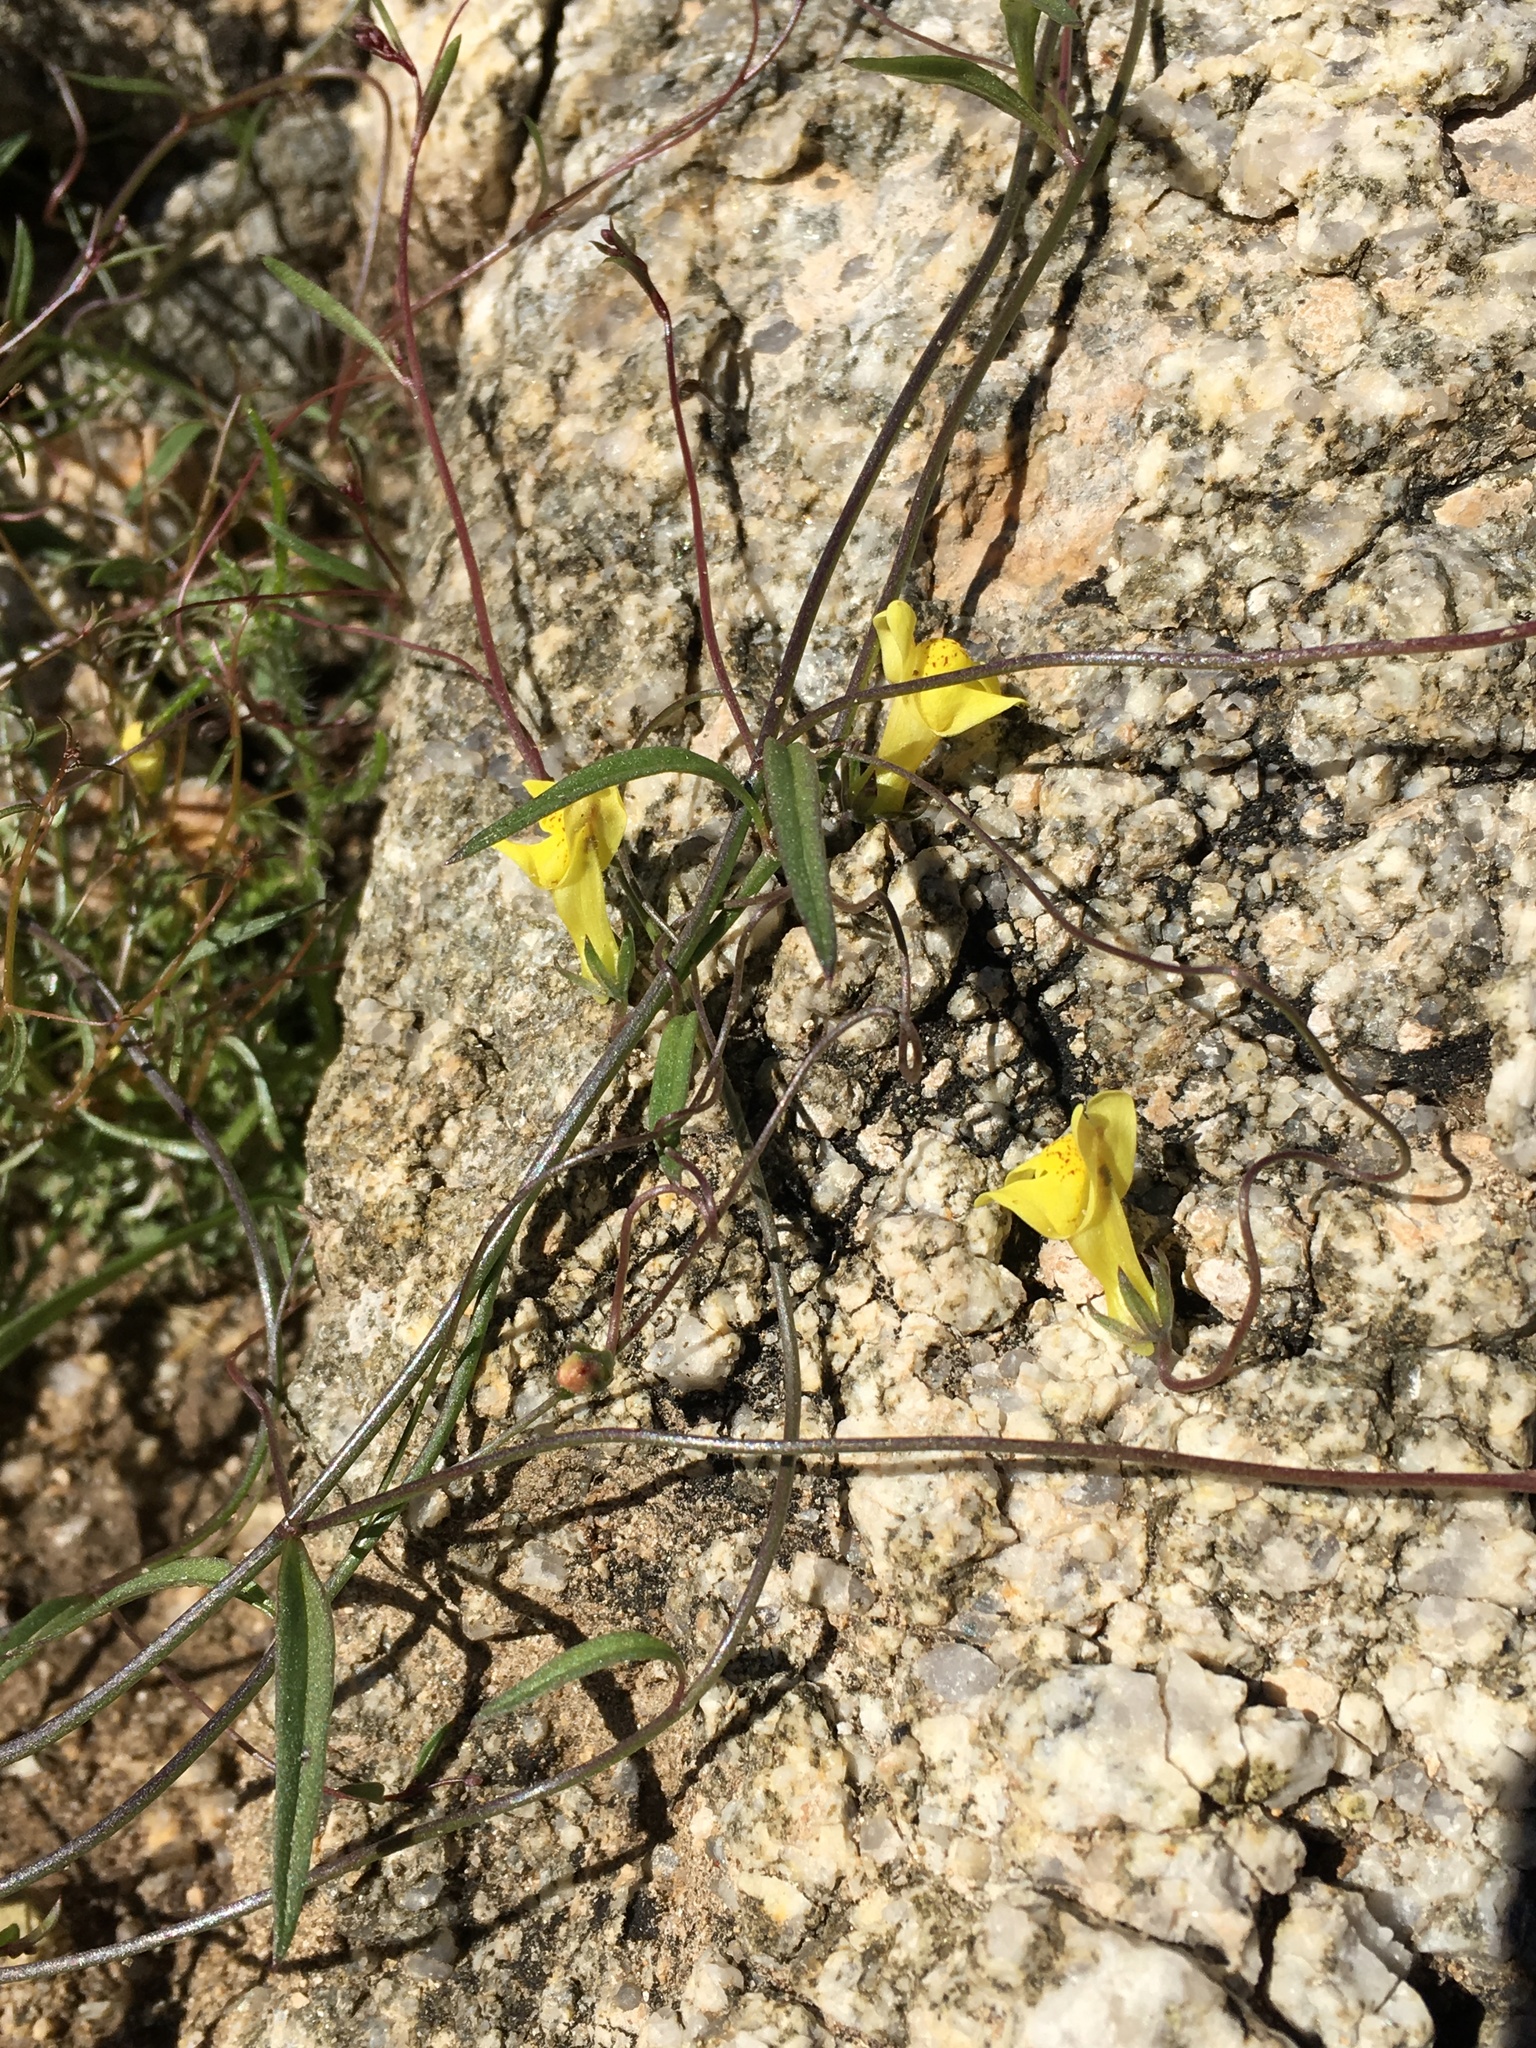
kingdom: Plantae
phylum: Tracheophyta
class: Magnoliopsida
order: Lamiales
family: Plantaginaceae
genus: Neogaerrhinum
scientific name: Neogaerrhinum filipes
